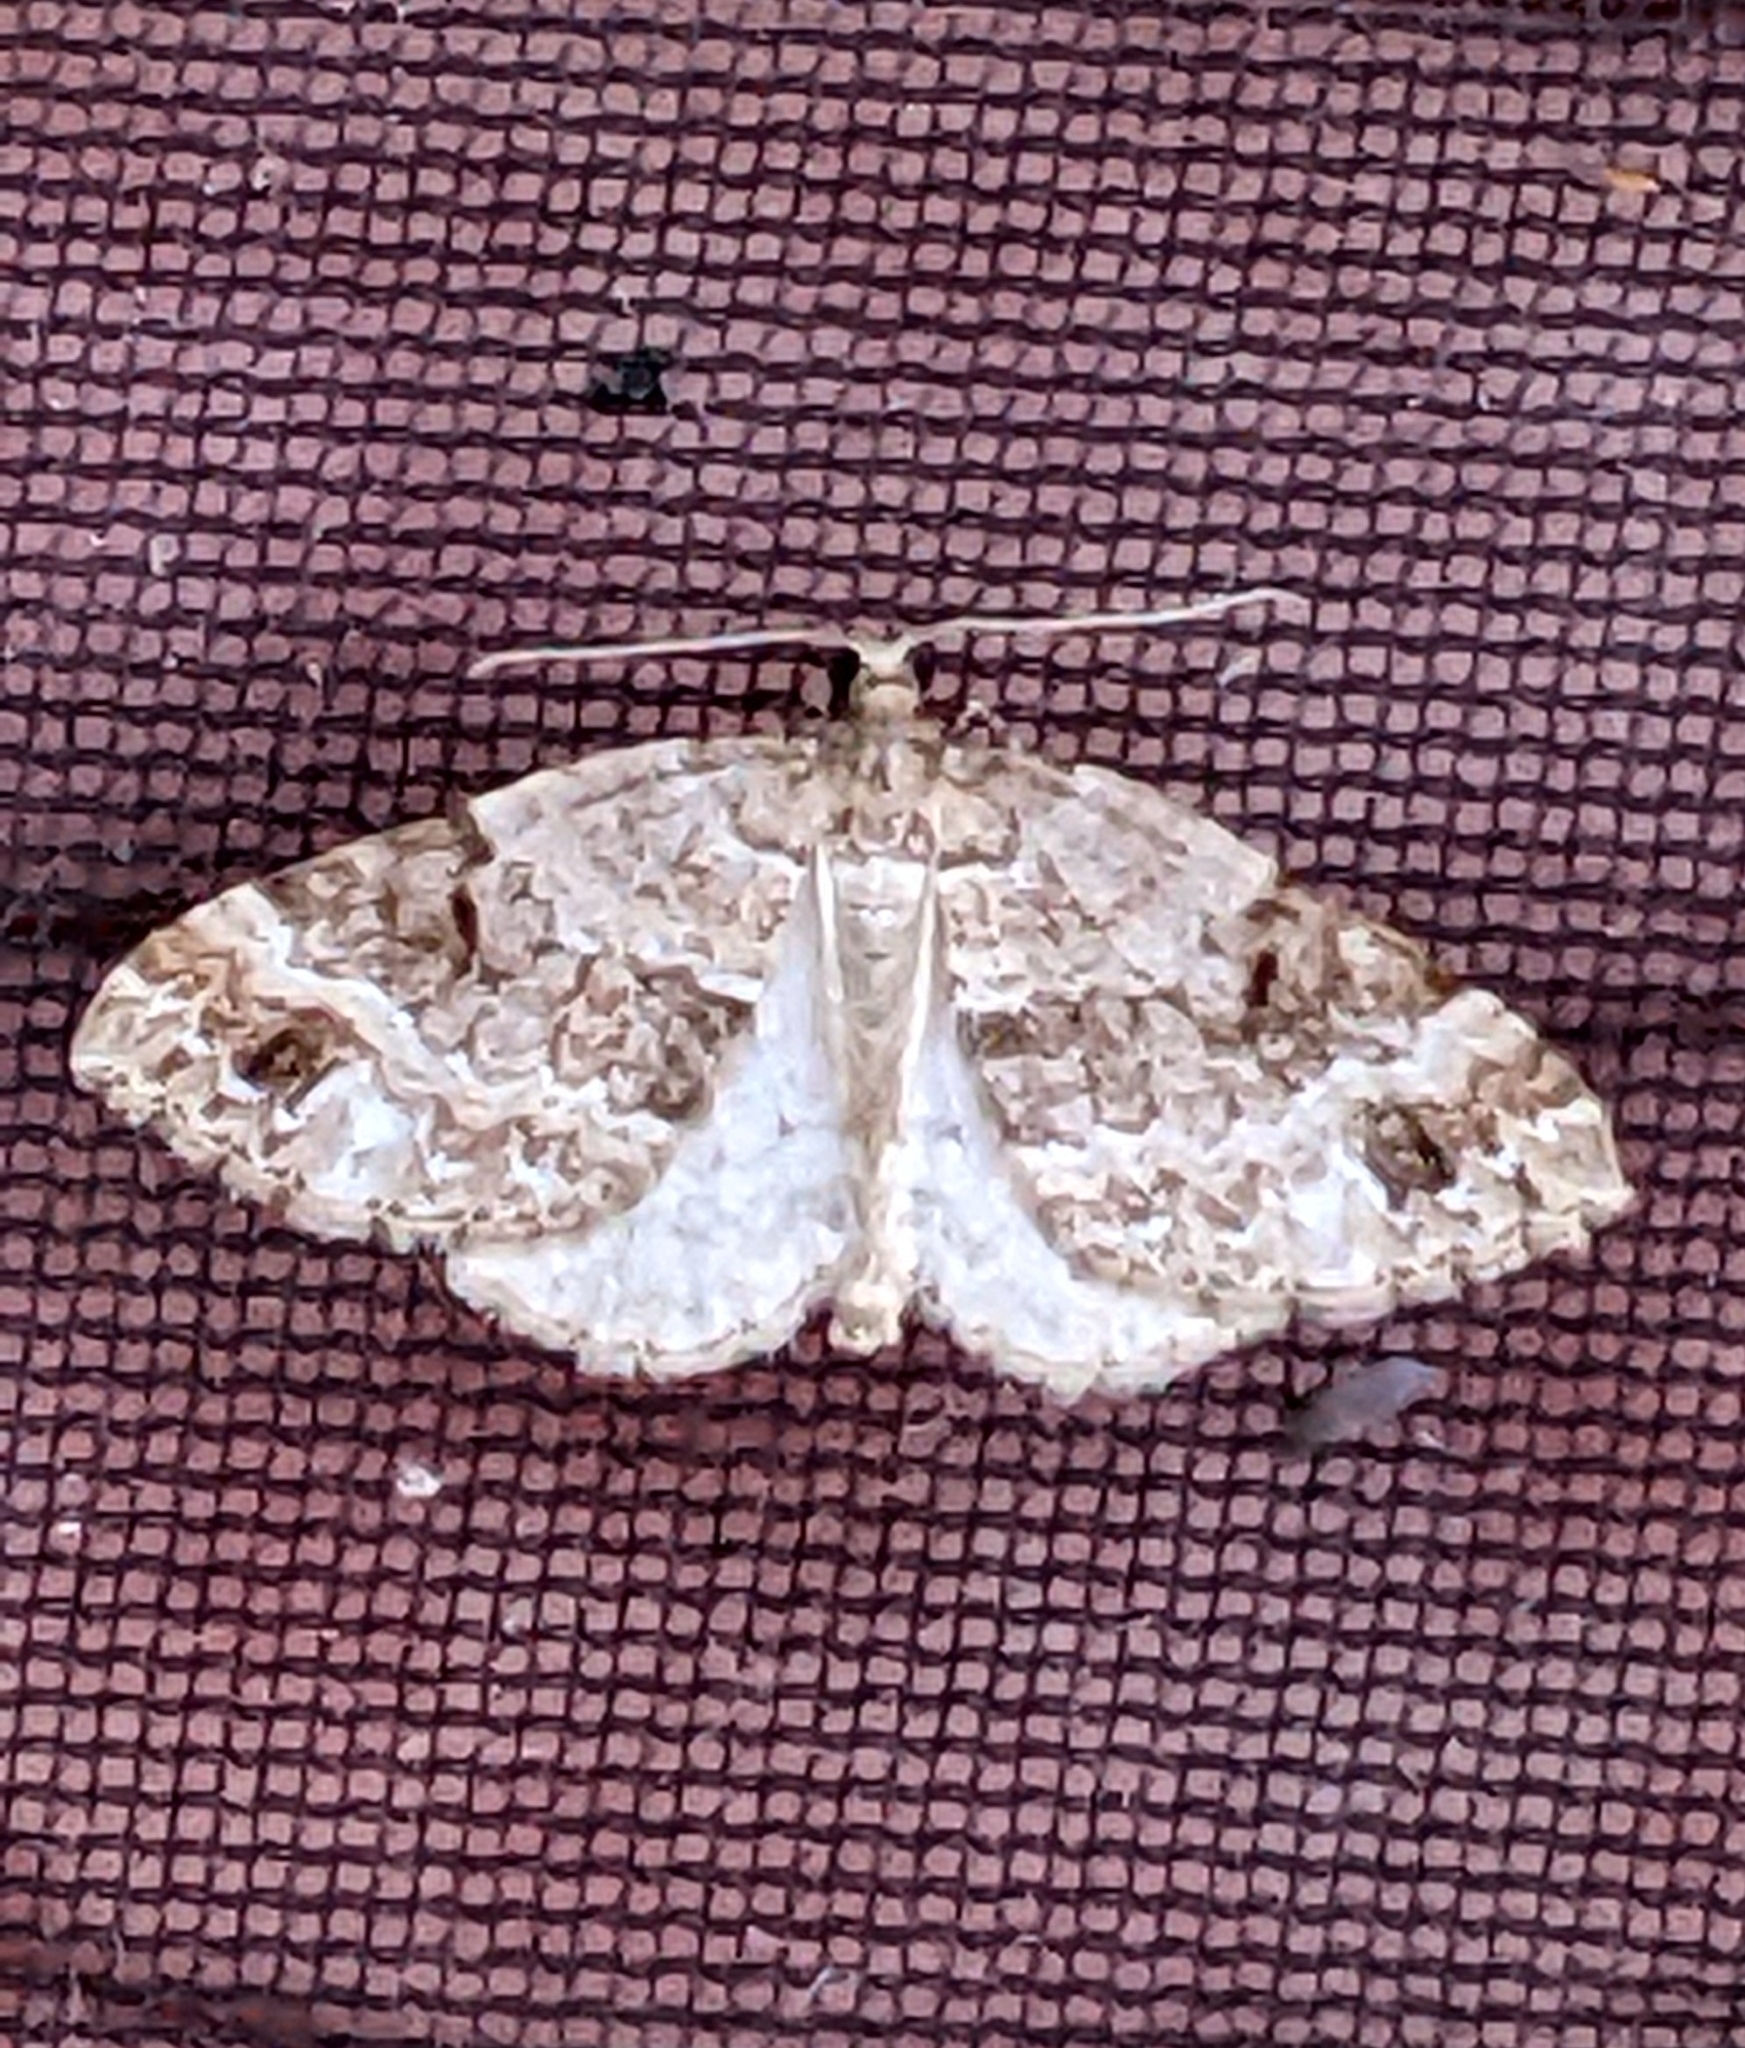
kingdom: Animalia
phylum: Arthropoda
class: Insecta
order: Lepidoptera
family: Geometridae
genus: Martania
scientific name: Martania
